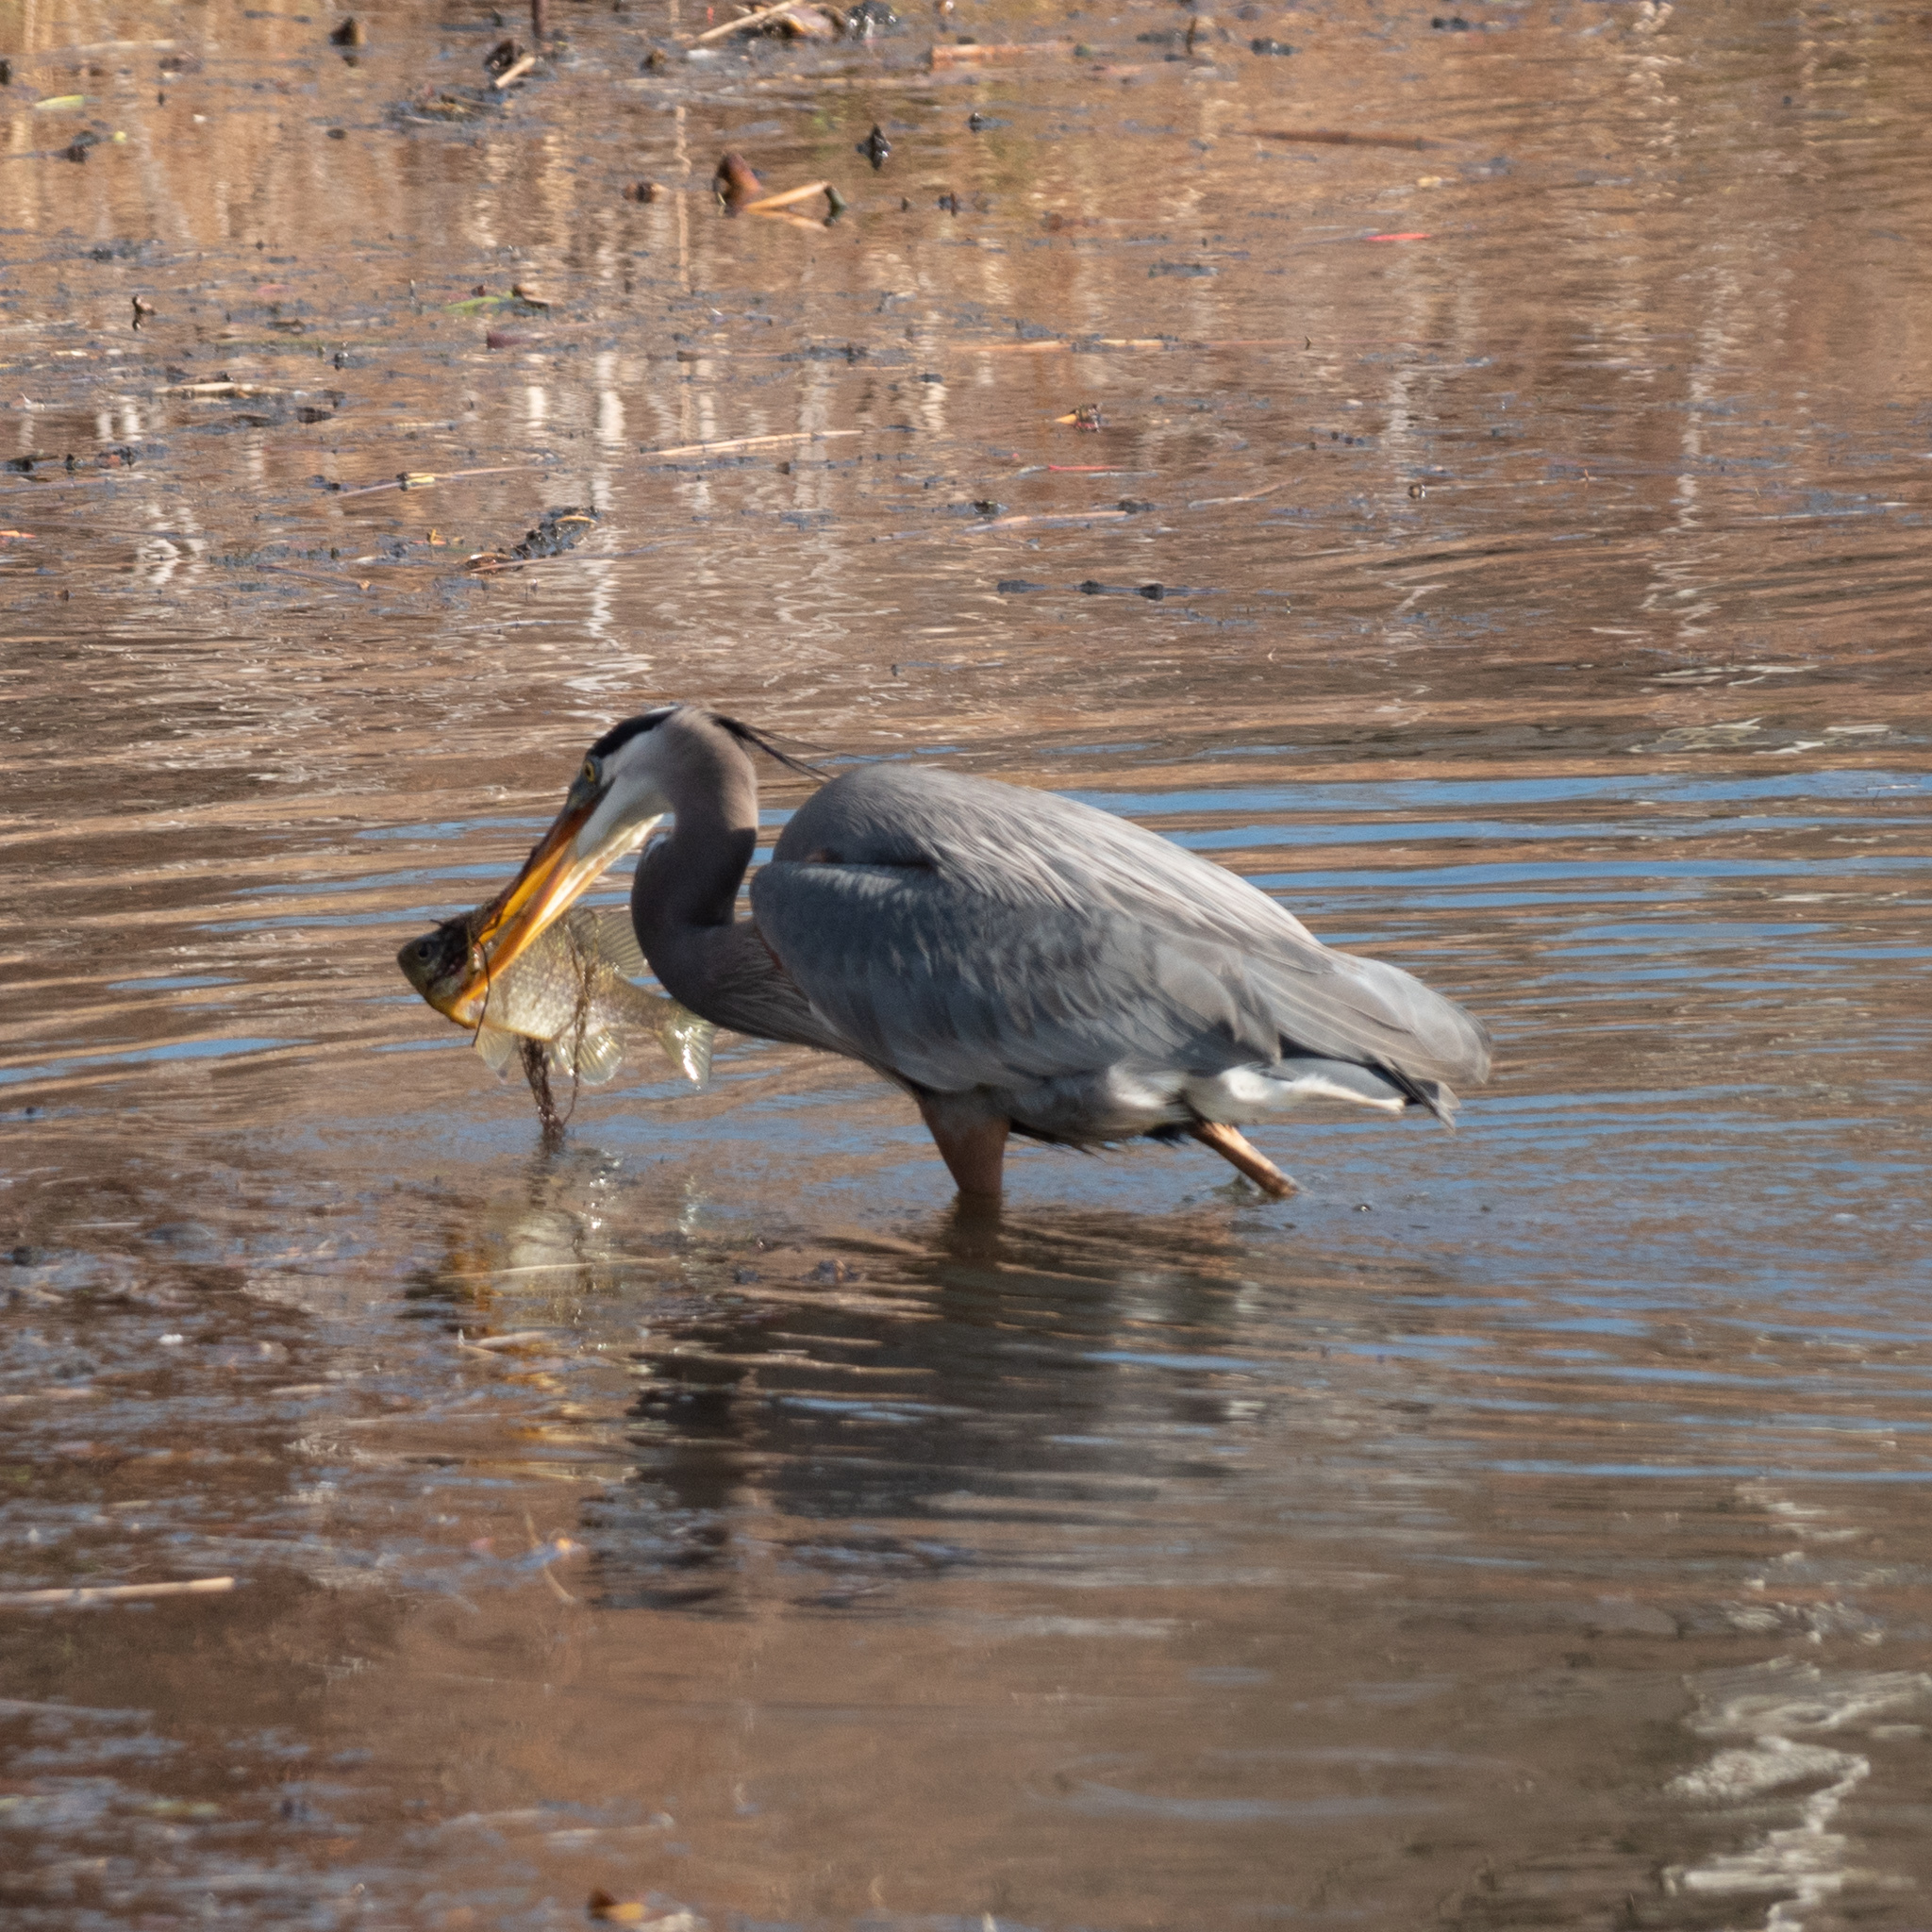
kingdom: Animalia
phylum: Chordata
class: Aves
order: Pelecaniformes
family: Ardeidae
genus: Ardea
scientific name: Ardea herodias
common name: Great blue heron
